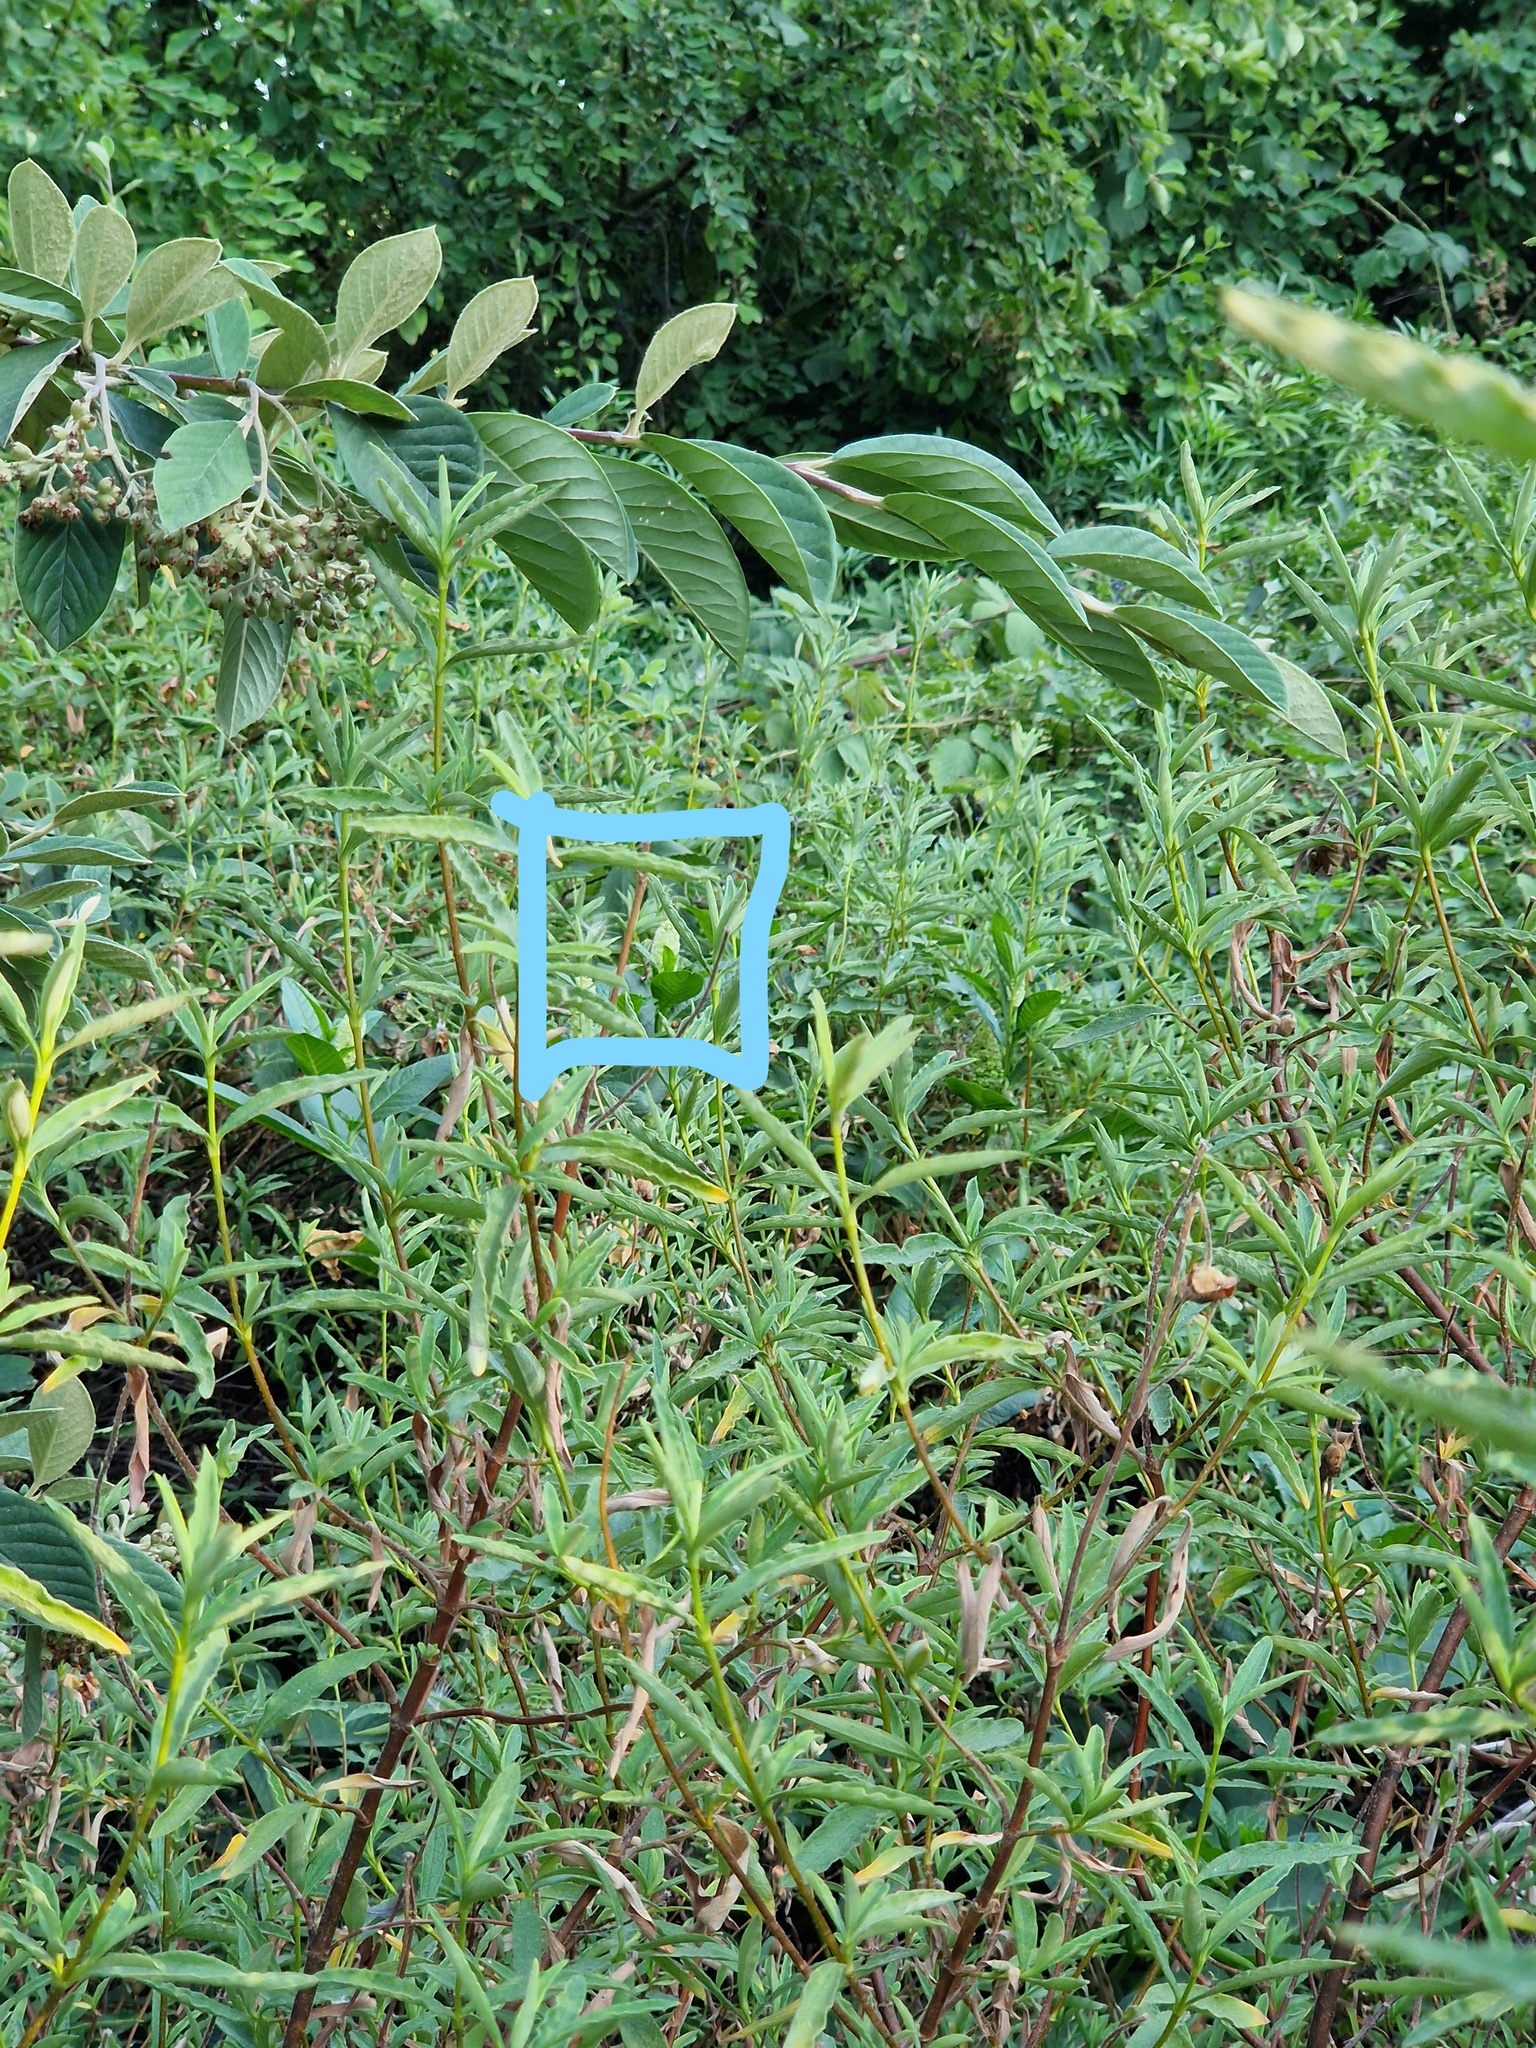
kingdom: Plantae
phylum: Tracheophyta
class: Magnoliopsida
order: Caryophyllales
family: Phytolaccaceae
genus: Phytolacca
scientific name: Phytolacca acinosa
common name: Indian pokeweed
